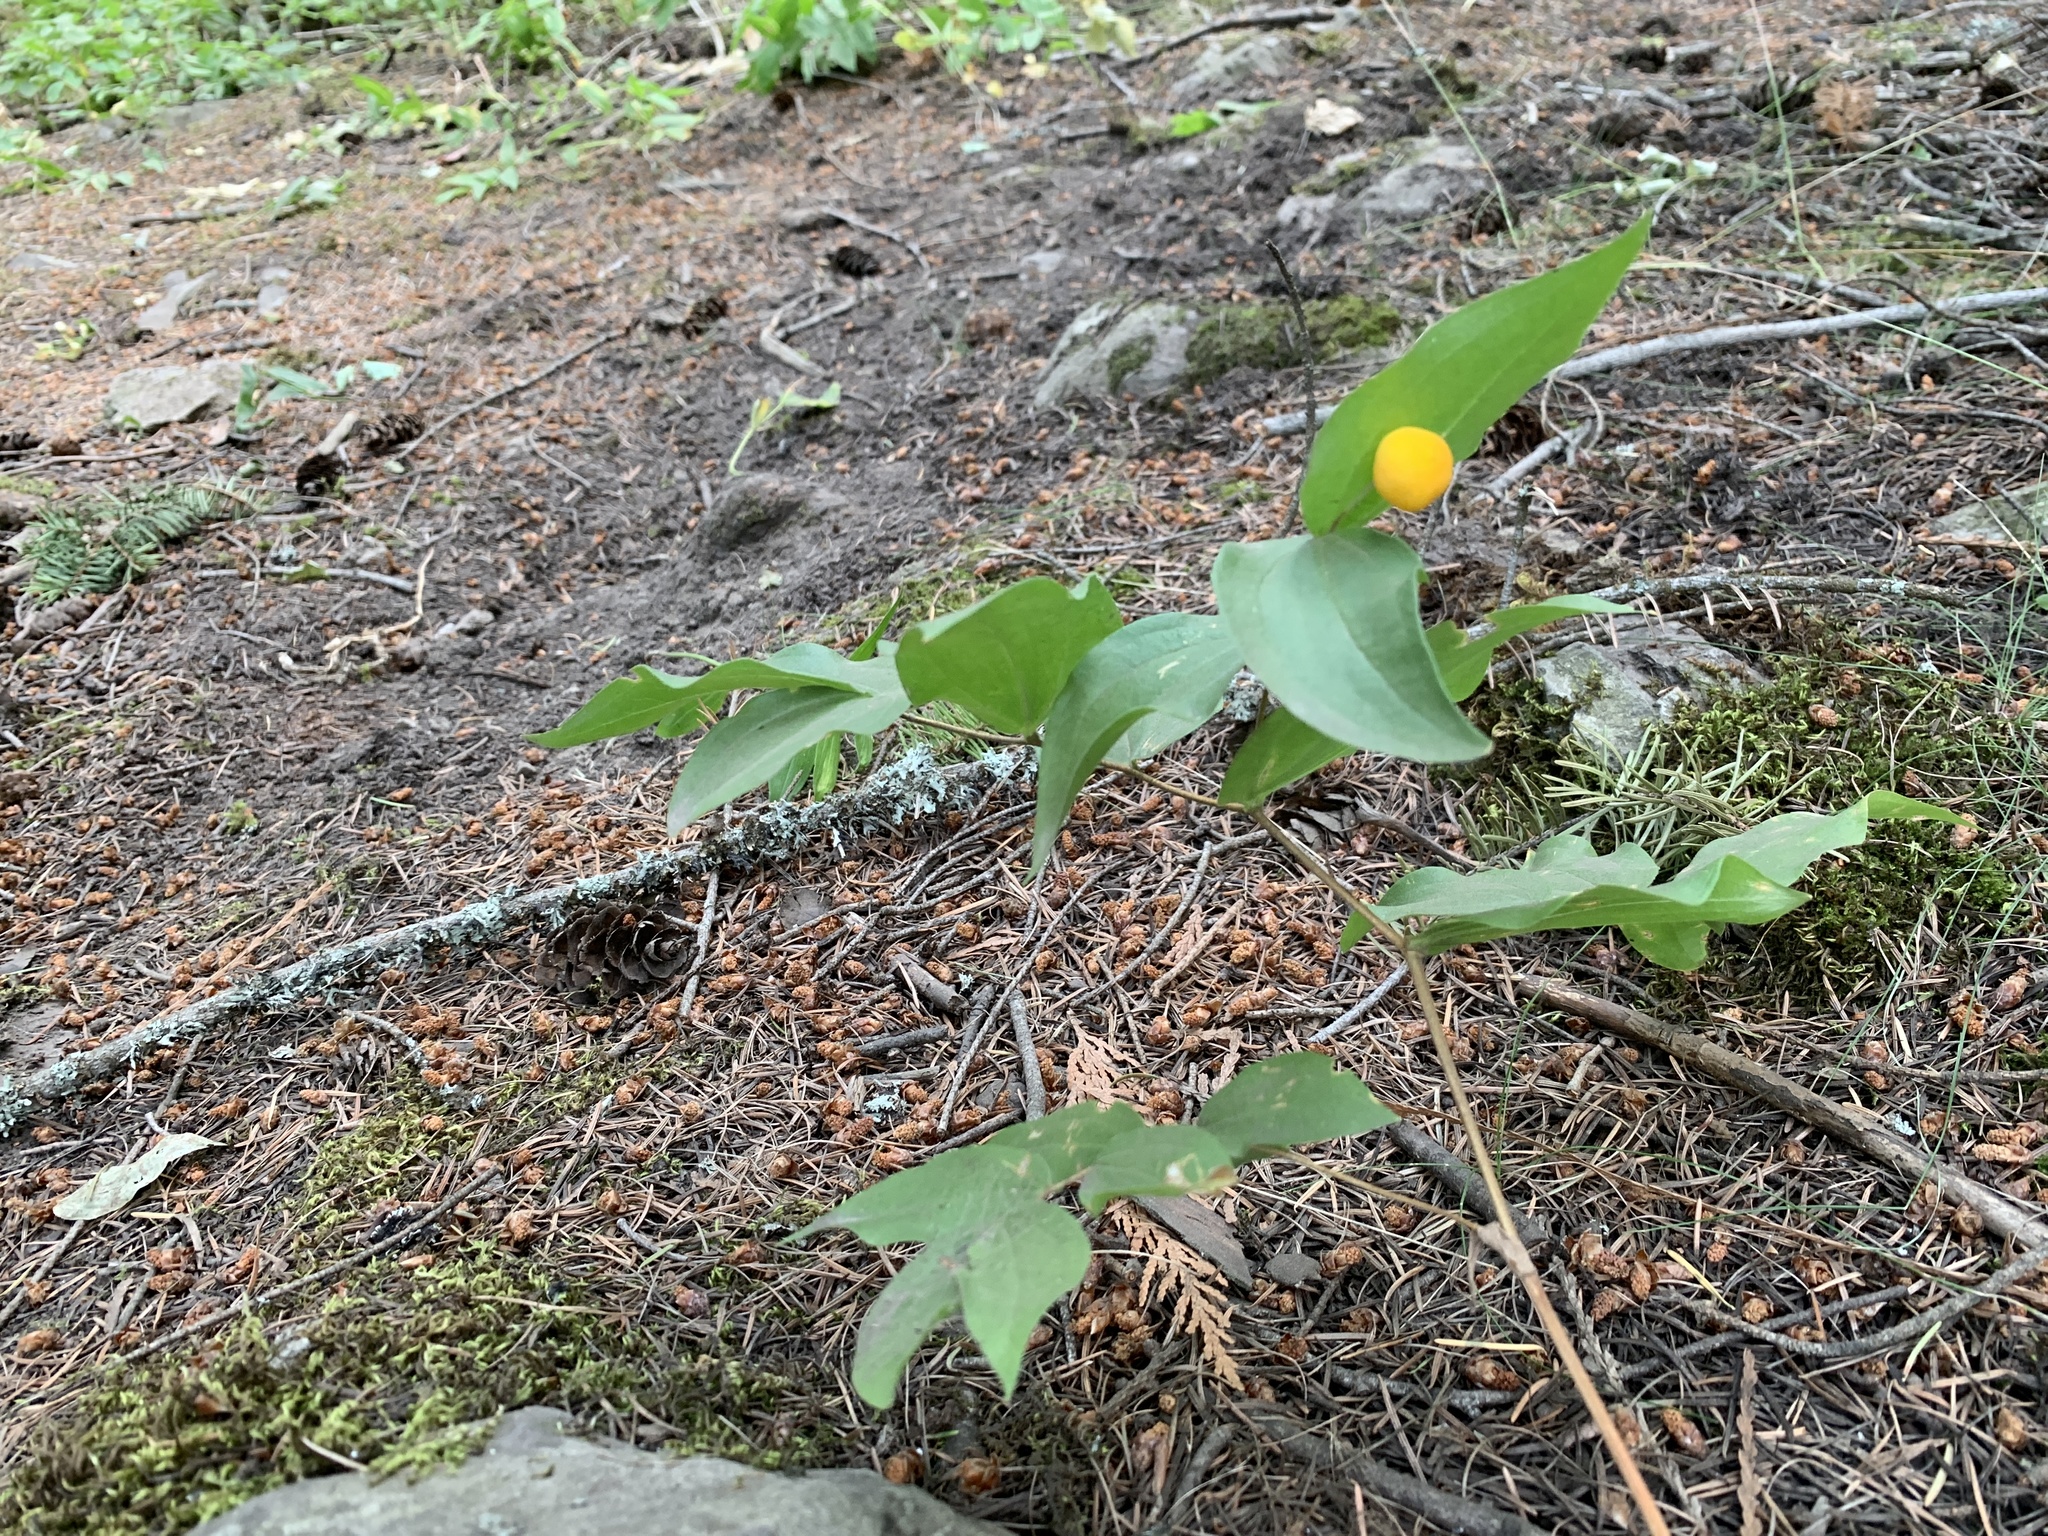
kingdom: Plantae
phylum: Tracheophyta
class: Liliopsida
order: Liliales
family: Liliaceae
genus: Prosartes
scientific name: Prosartes trachycarpa
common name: Rough-fruit fairy-bells
